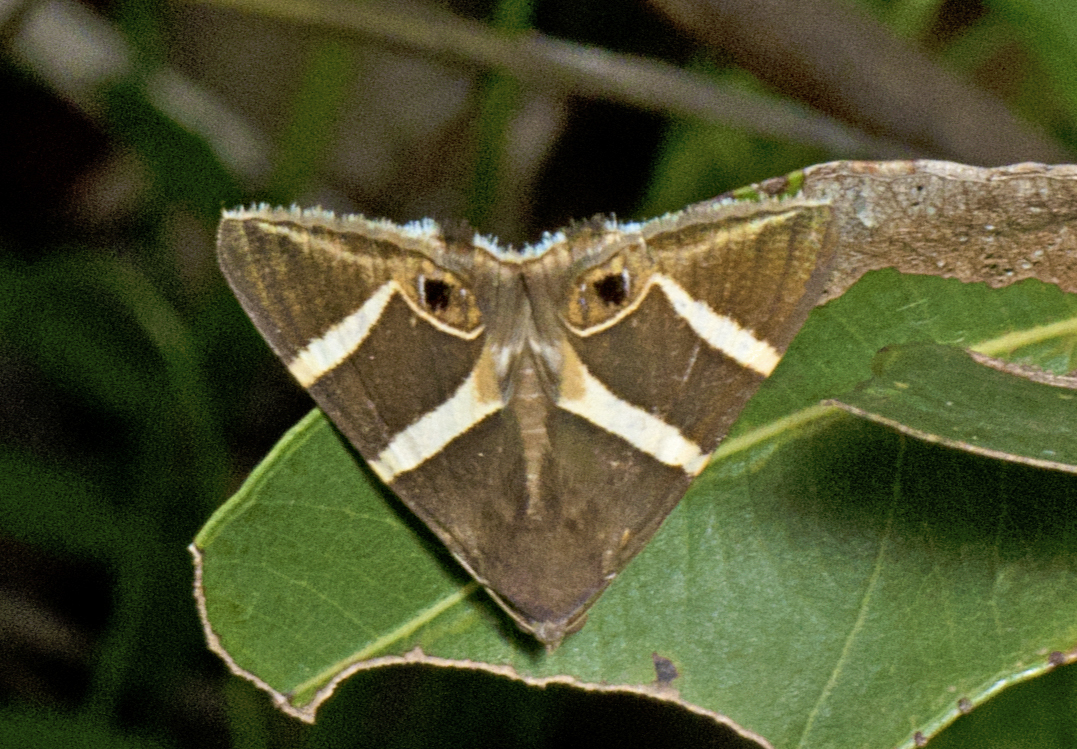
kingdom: Animalia
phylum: Arthropoda
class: Insecta
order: Lepidoptera
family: Erebidae
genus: Grammodes
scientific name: Grammodes oculicola
